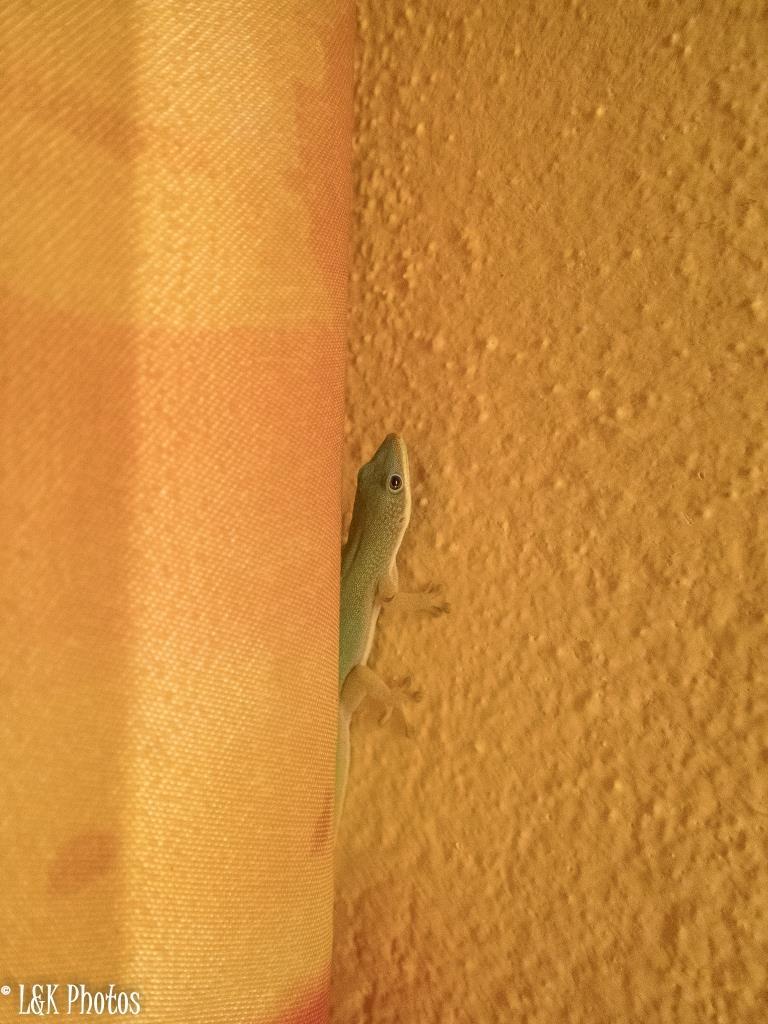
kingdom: Animalia
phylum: Chordata
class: Squamata
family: Gekkonidae
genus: Phelsuma
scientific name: Phelsuma hielscheri
